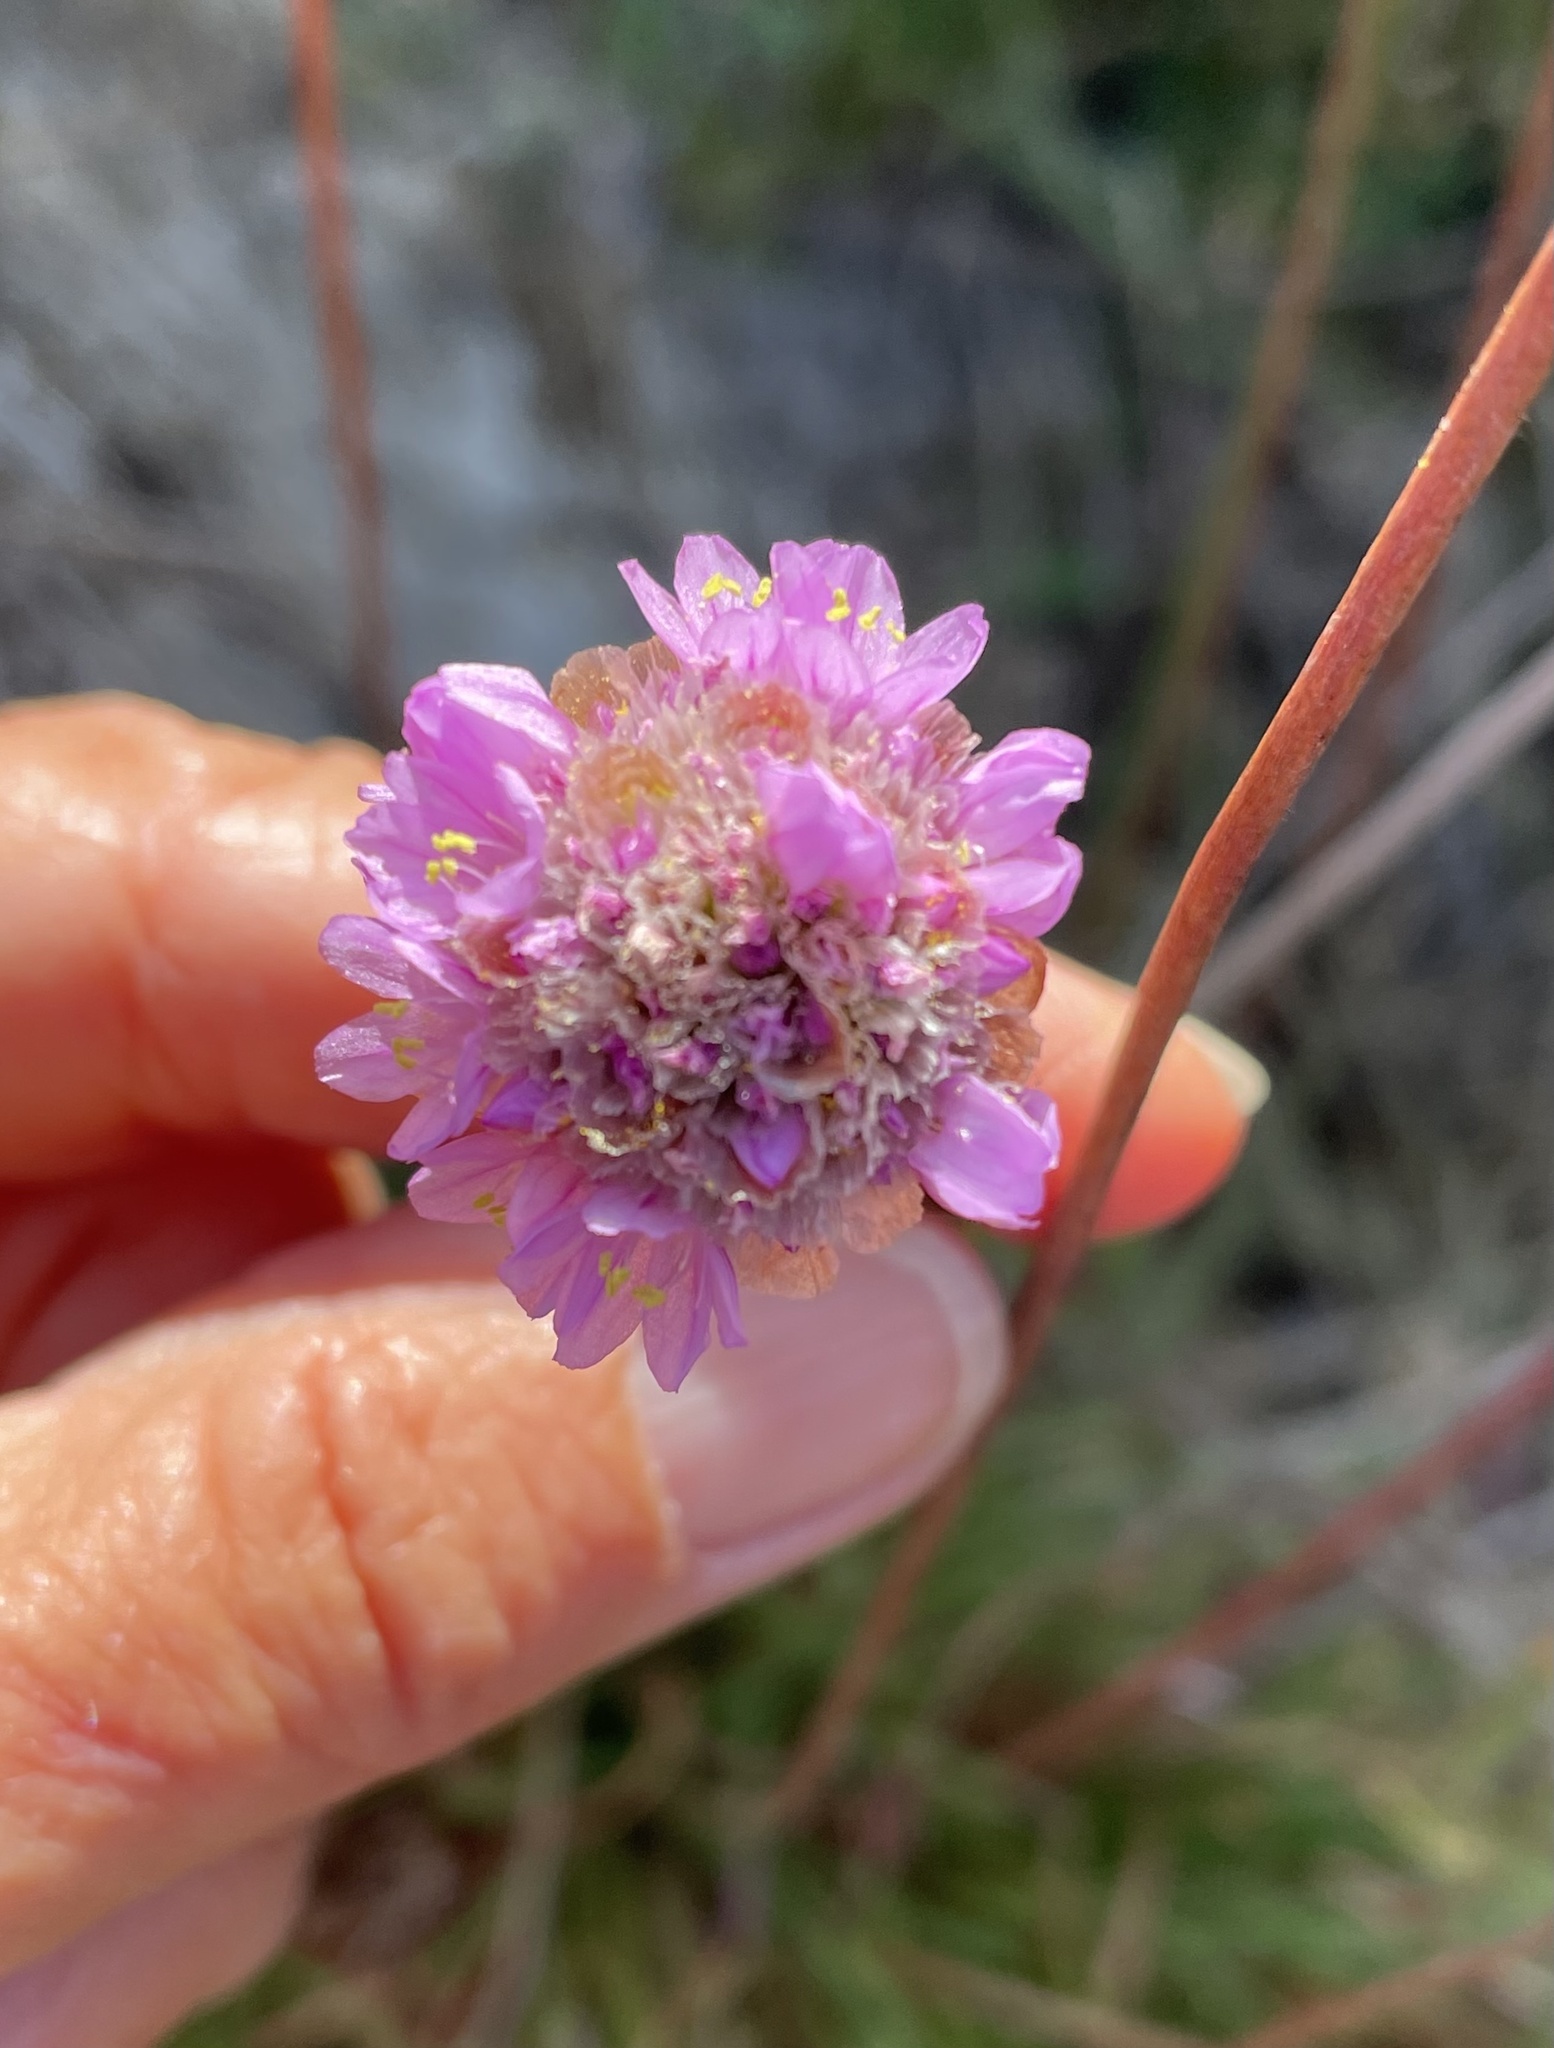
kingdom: Plantae
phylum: Tracheophyta
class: Magnoliopsida
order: Caryophyllales
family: Plumbaginaceae
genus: Armeria
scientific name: Armeria maritima
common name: Thrift
